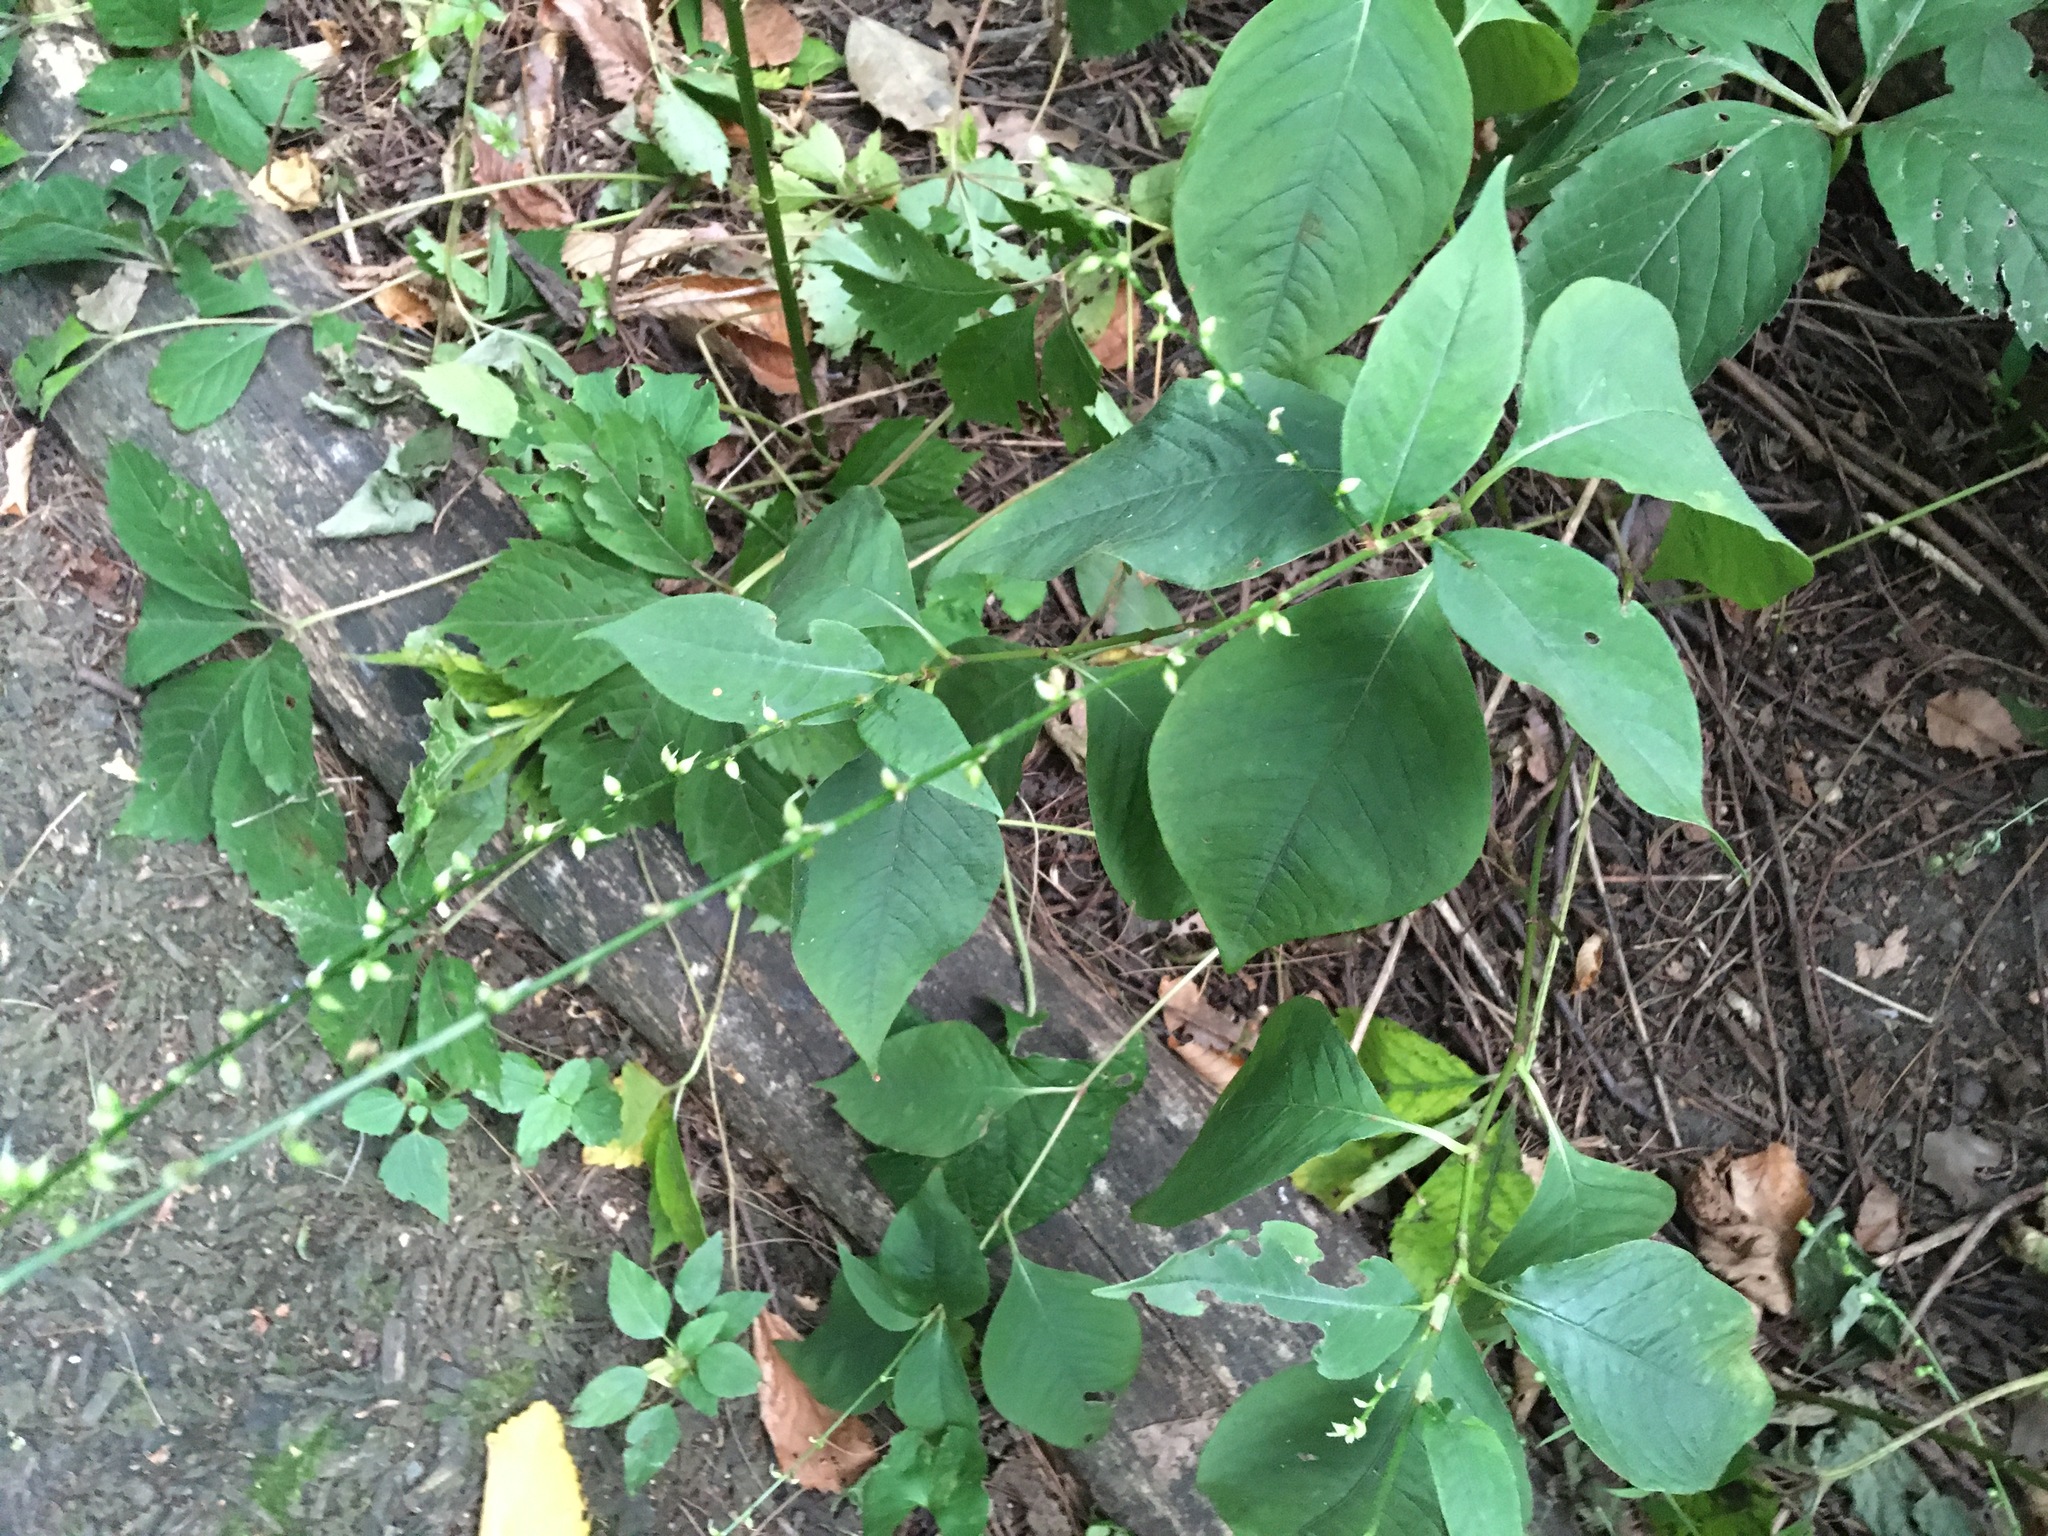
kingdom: Plantae
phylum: Tracheophyta
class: Magnoliopsida
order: Caryophyllales
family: Polygonaceae
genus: Persicaria
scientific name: Persicaria virginiana
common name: Jumpseed
